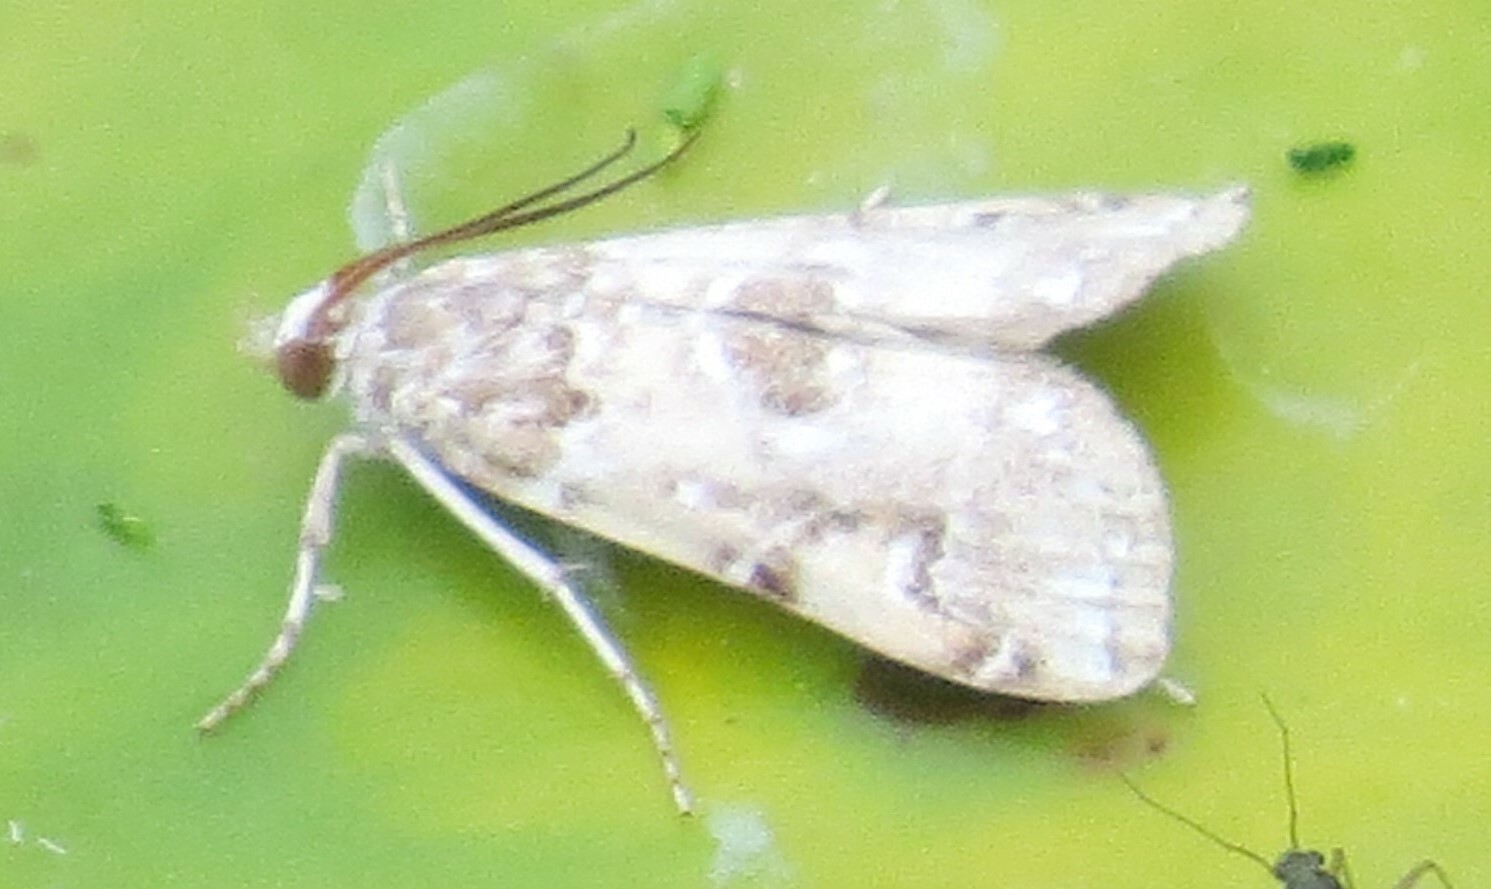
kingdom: Animalia
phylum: Arthropoda
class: Insecta
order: Lepidoptera
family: Crambidae
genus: Elophila
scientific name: Elophila gyralis
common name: Waterlily borer moth
